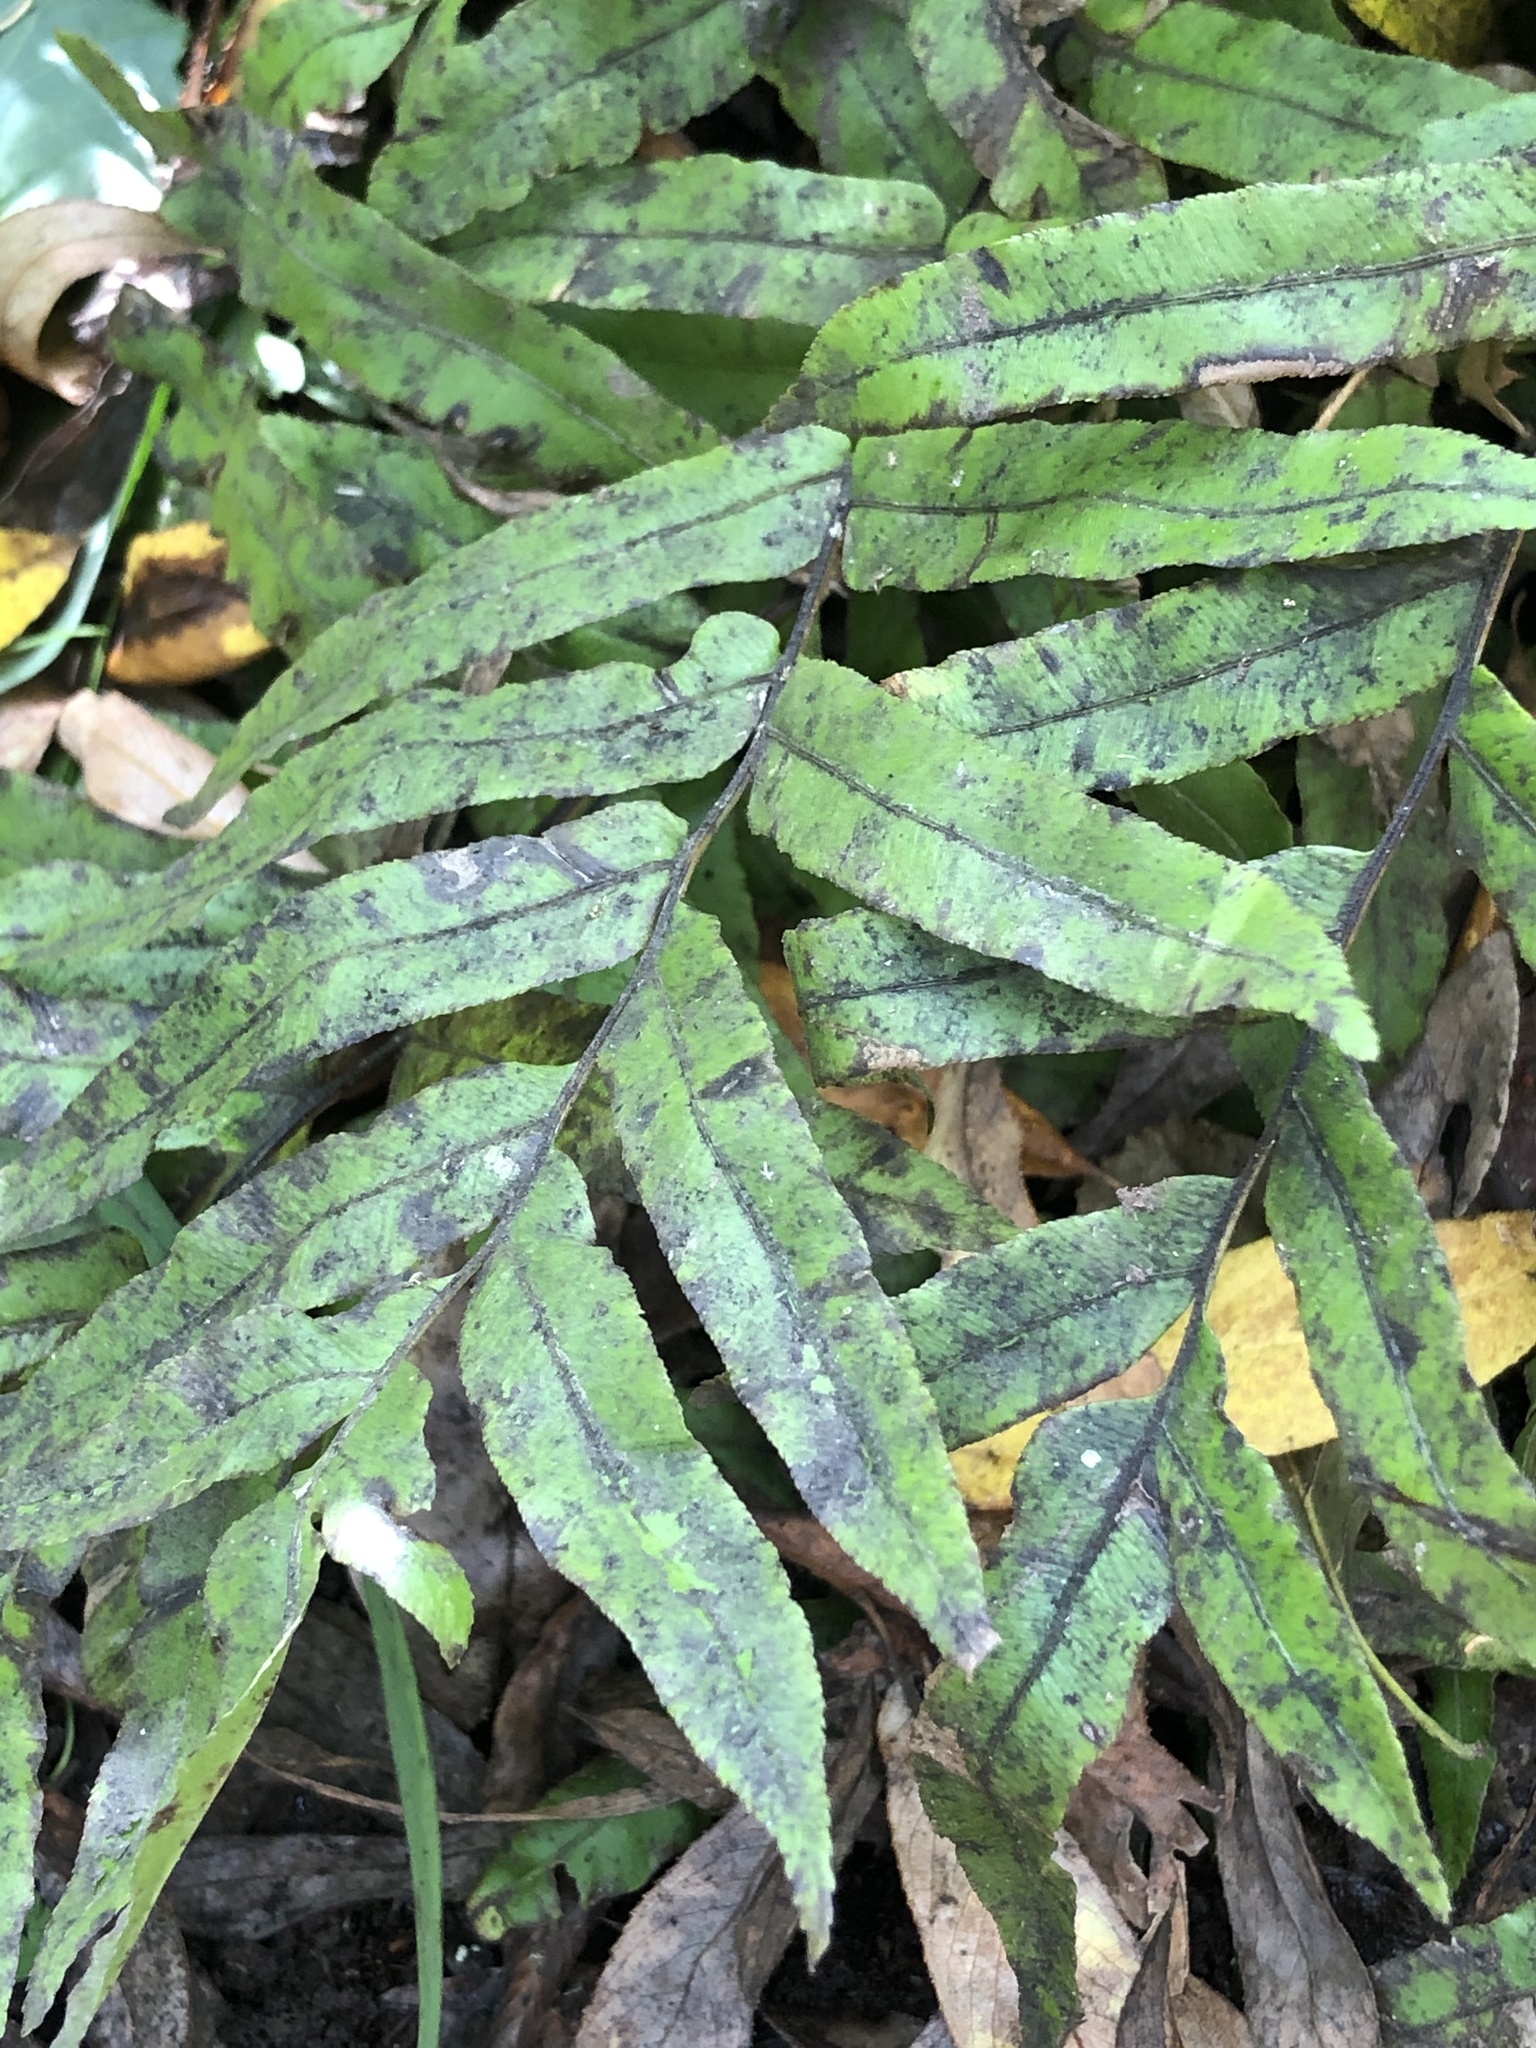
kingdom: Plantae
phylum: Tracheophyta
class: Polypodiopsida
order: Polypodiales
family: Blechnaceae
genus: Parablechnum
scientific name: Parablechnum minus
